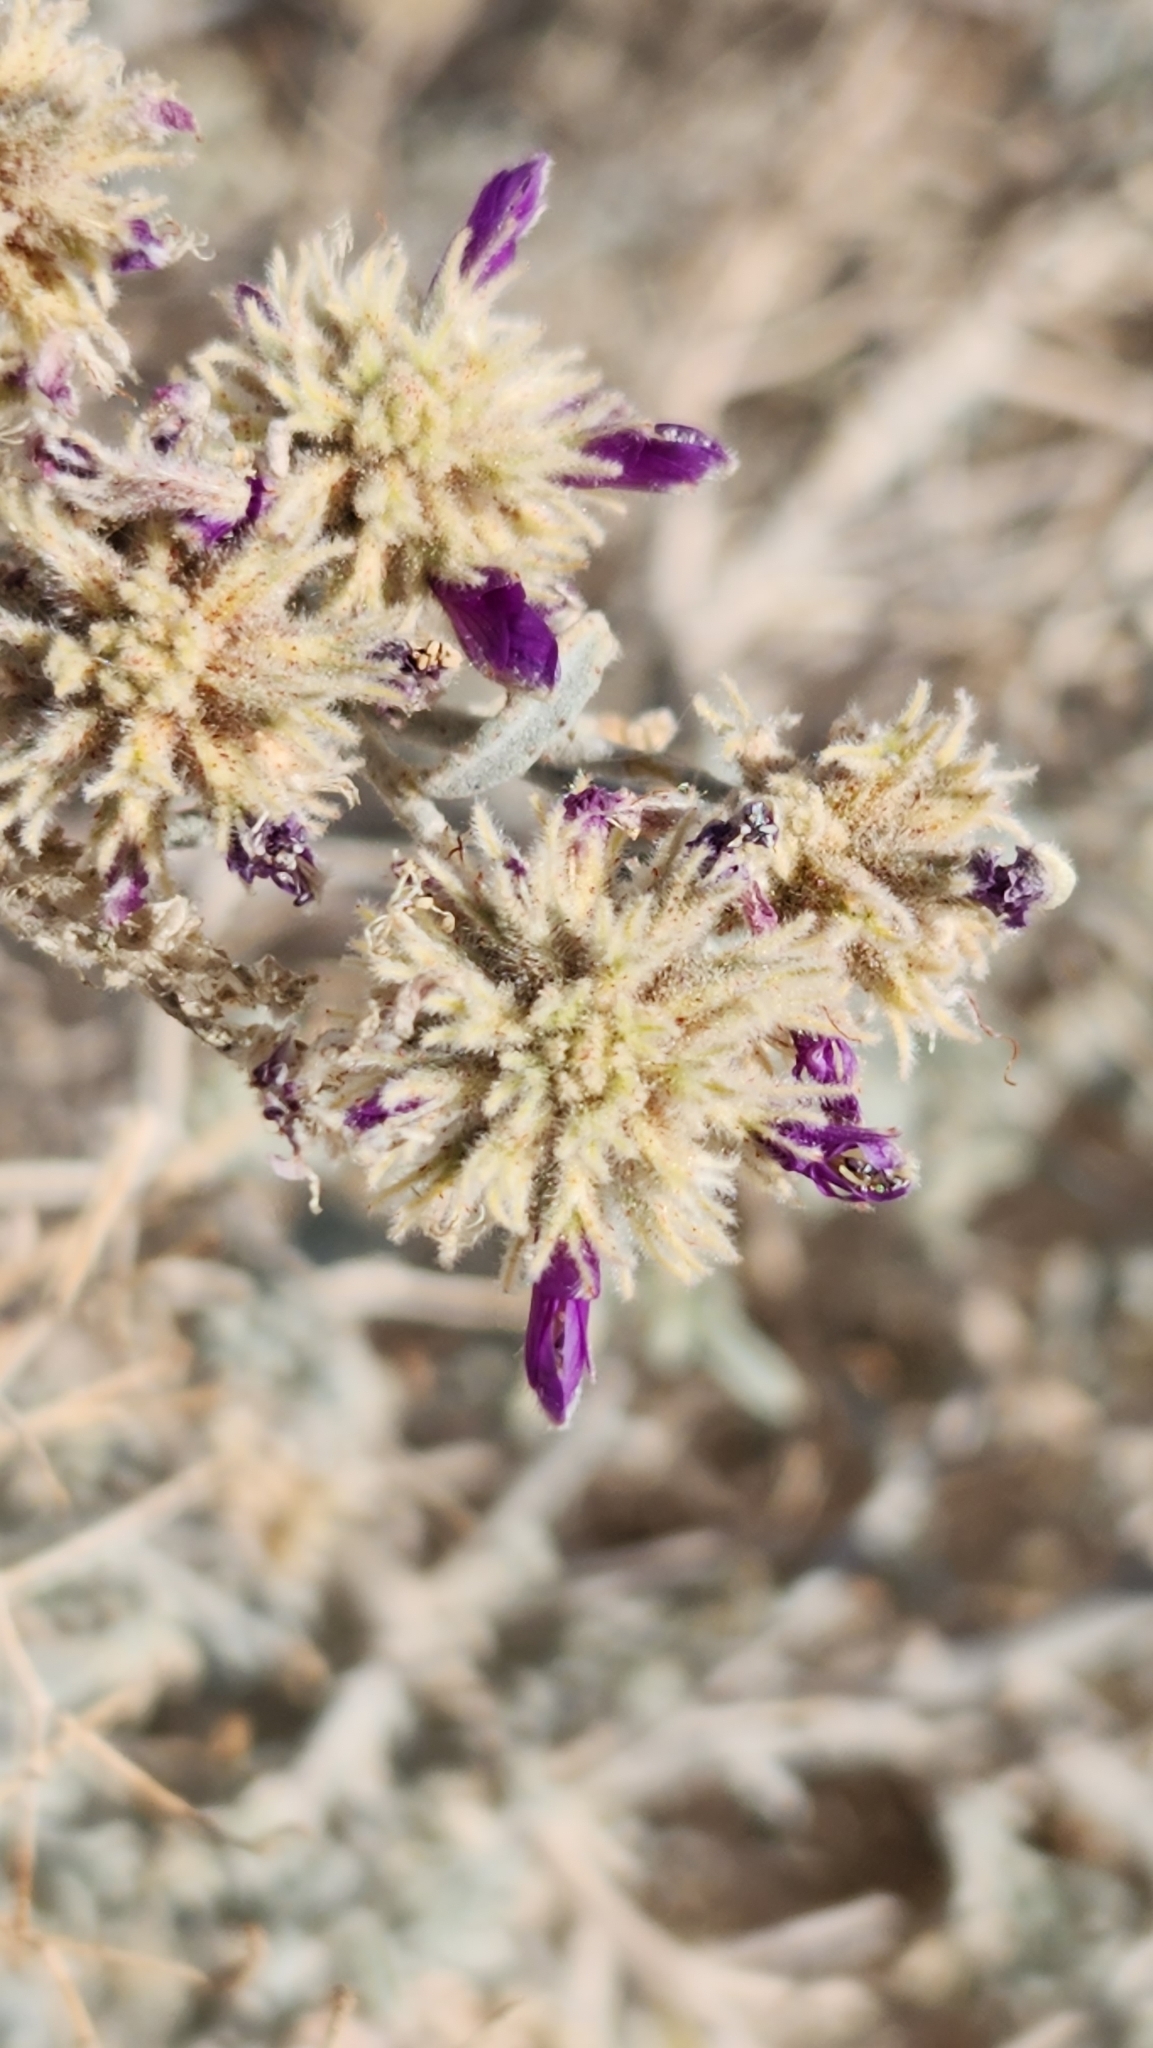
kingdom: Plantae
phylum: Tracheophyta
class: Magnoliopsida
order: Fabales
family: Fabaceae
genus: Psorothamnus
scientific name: Psorothamnus emoryi
